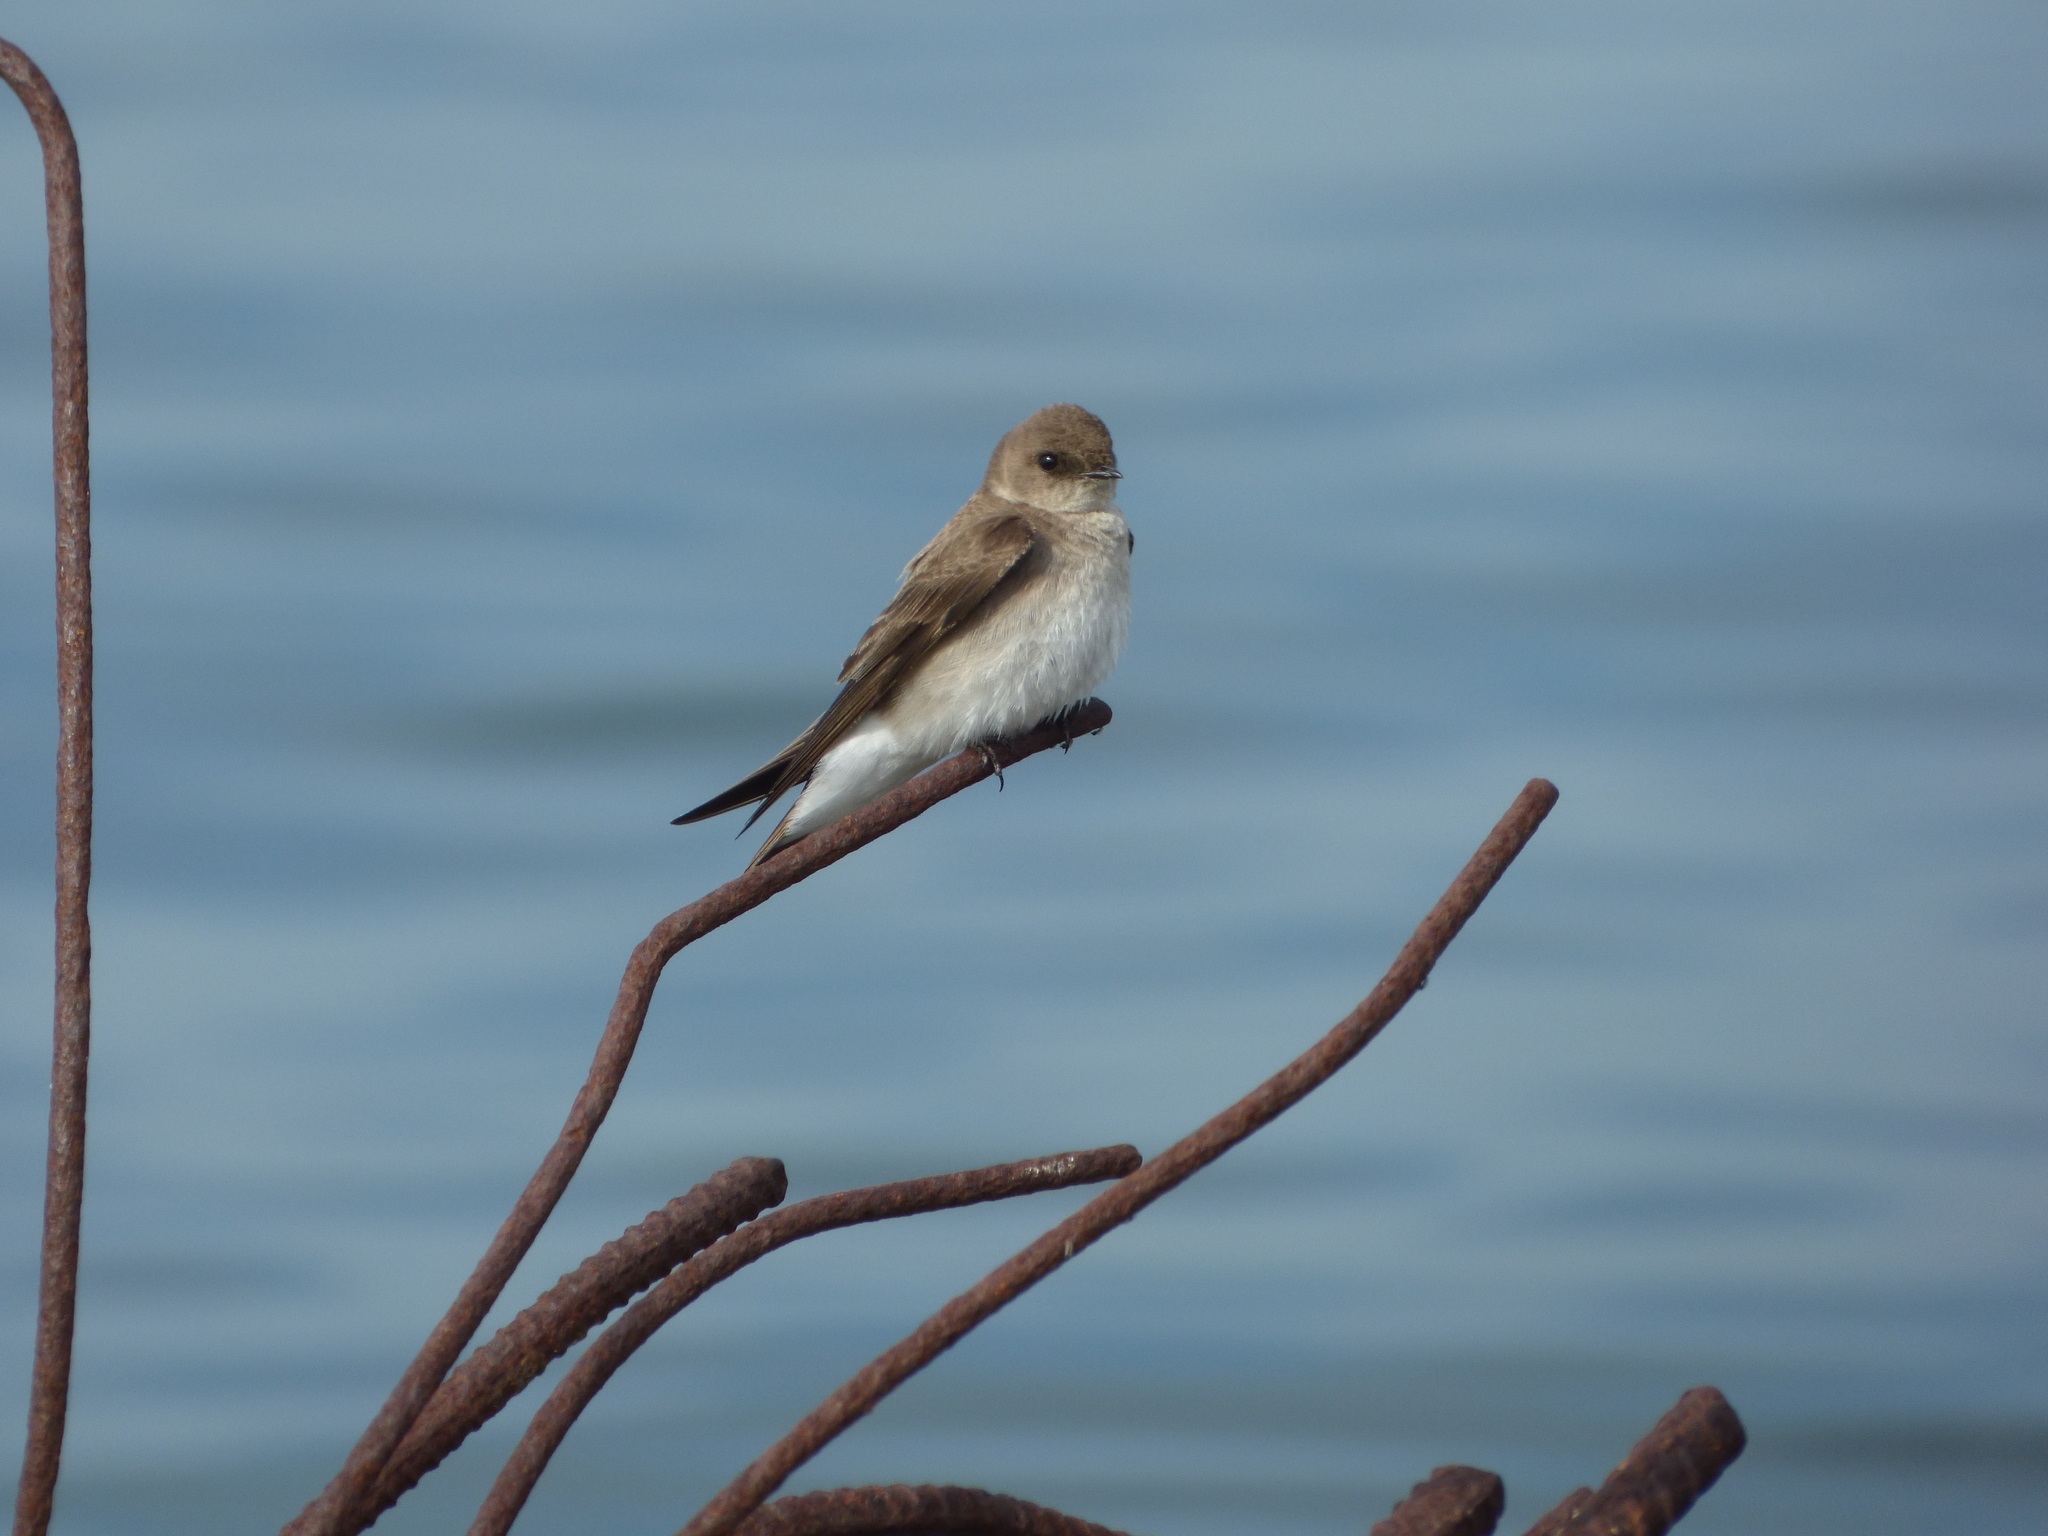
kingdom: Animalia
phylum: Chordata
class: Aves
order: Passeriformes
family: Hirundinidae
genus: Stelgidopteryx
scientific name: Stelgidopteryx serripennis
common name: Northern rough-winged swallow
